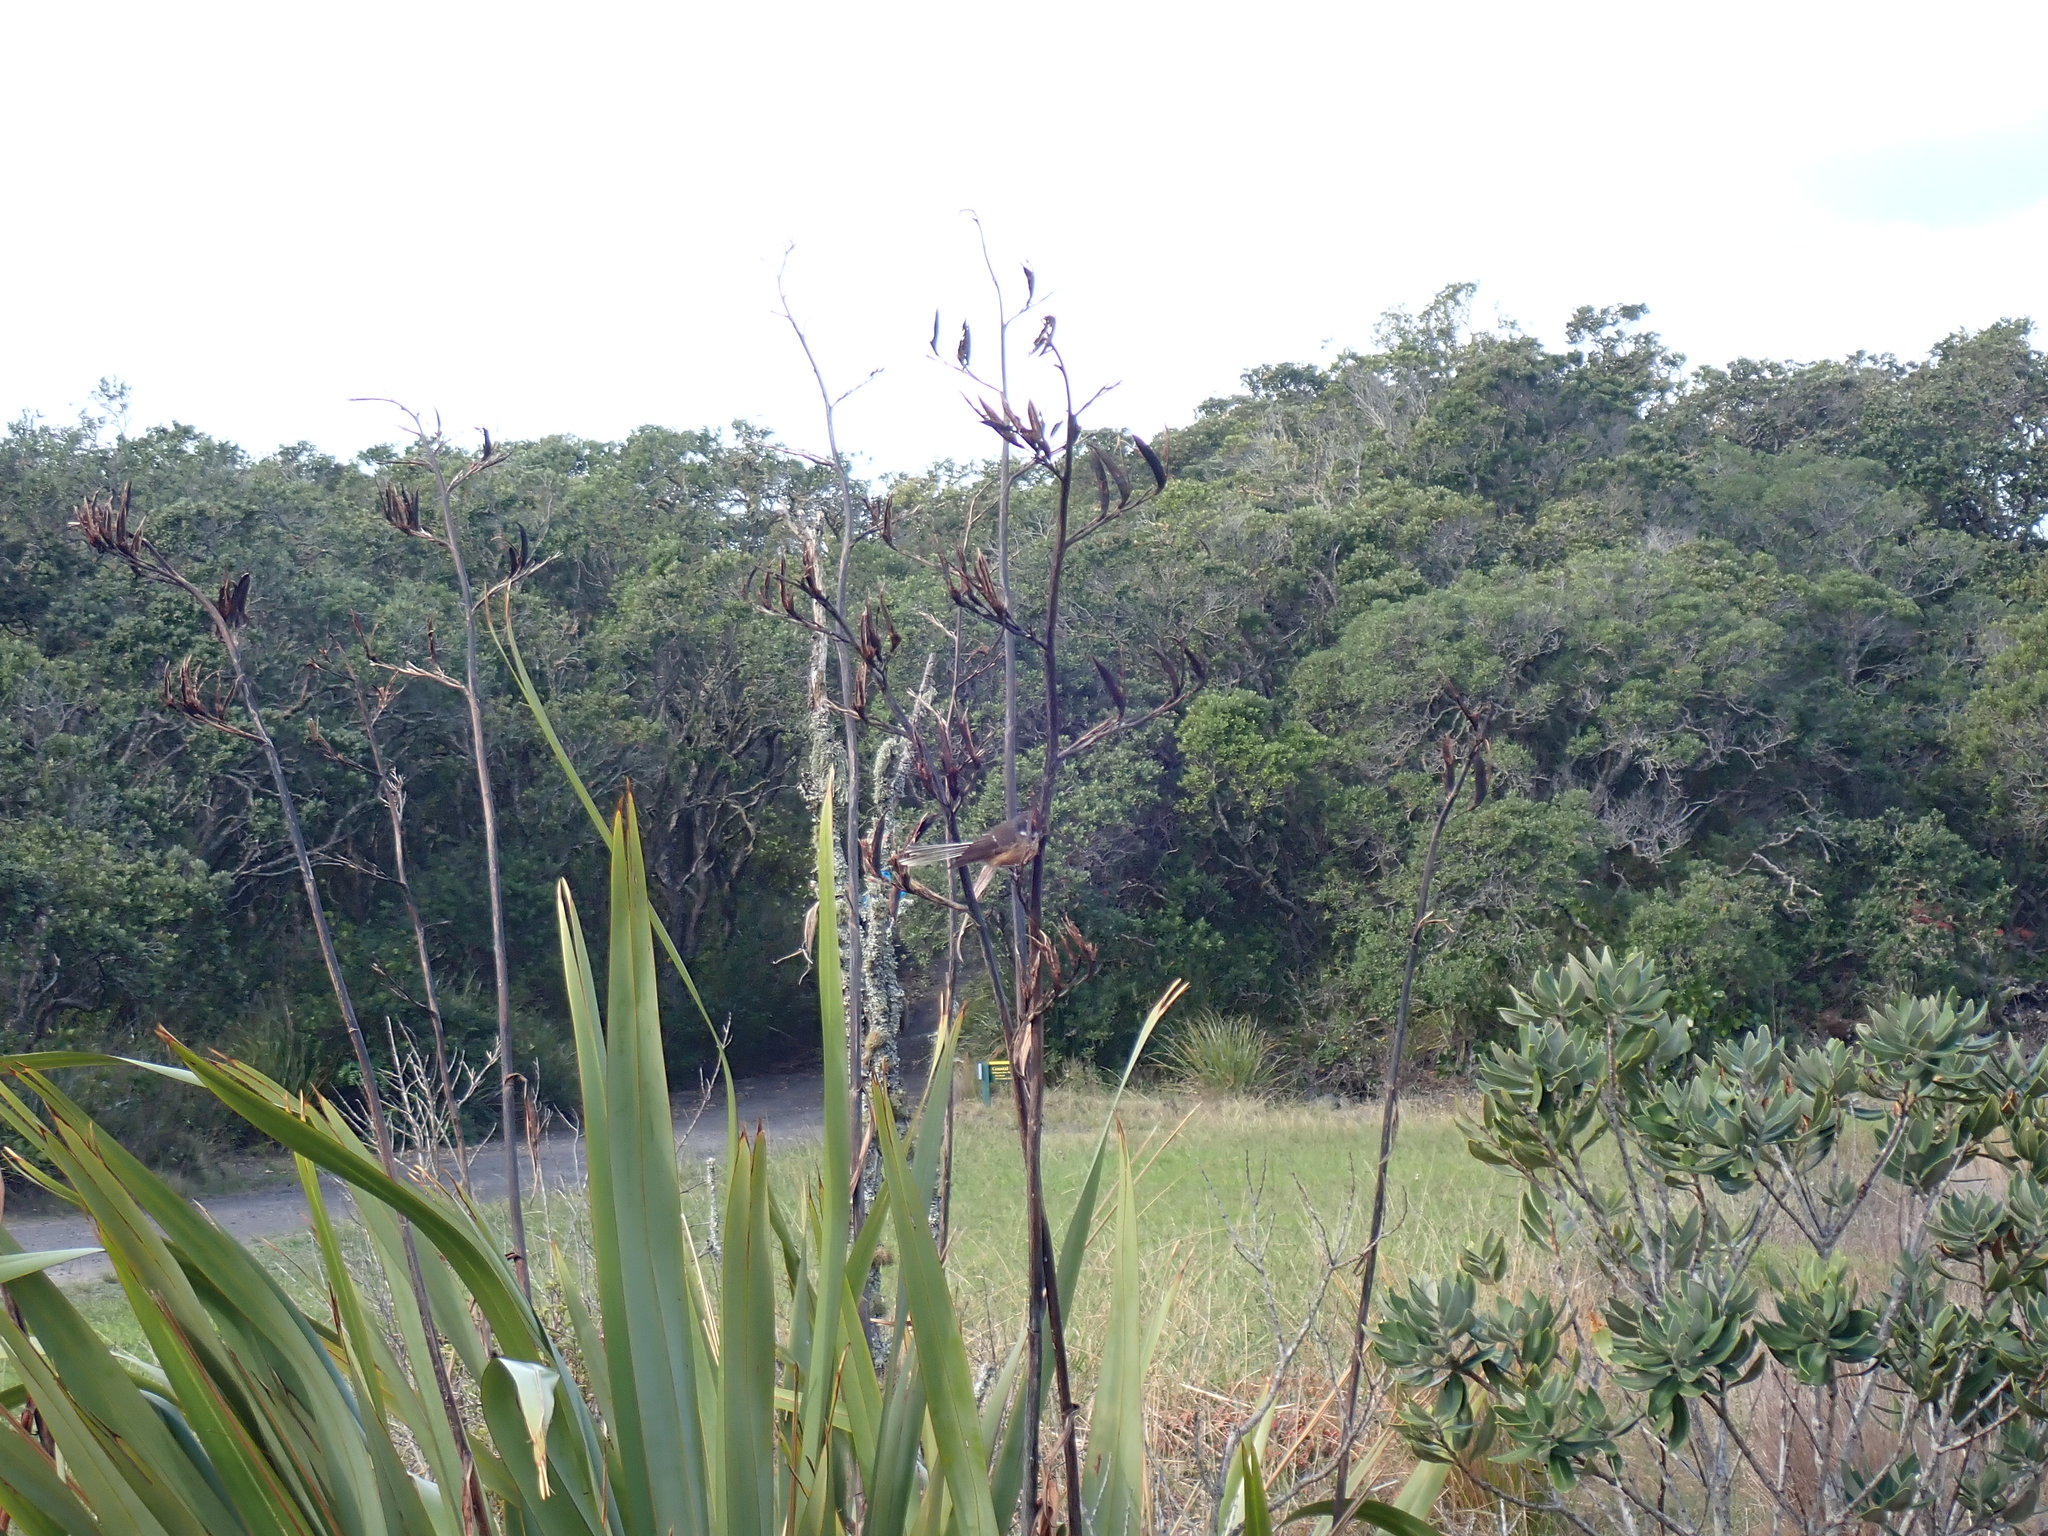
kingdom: Animalia
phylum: Chordata
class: Aves
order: Passeriformes
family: Rhipiduridae
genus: Rhipidura
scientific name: Rhipidura fuliginosa
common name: New zealand fantail
